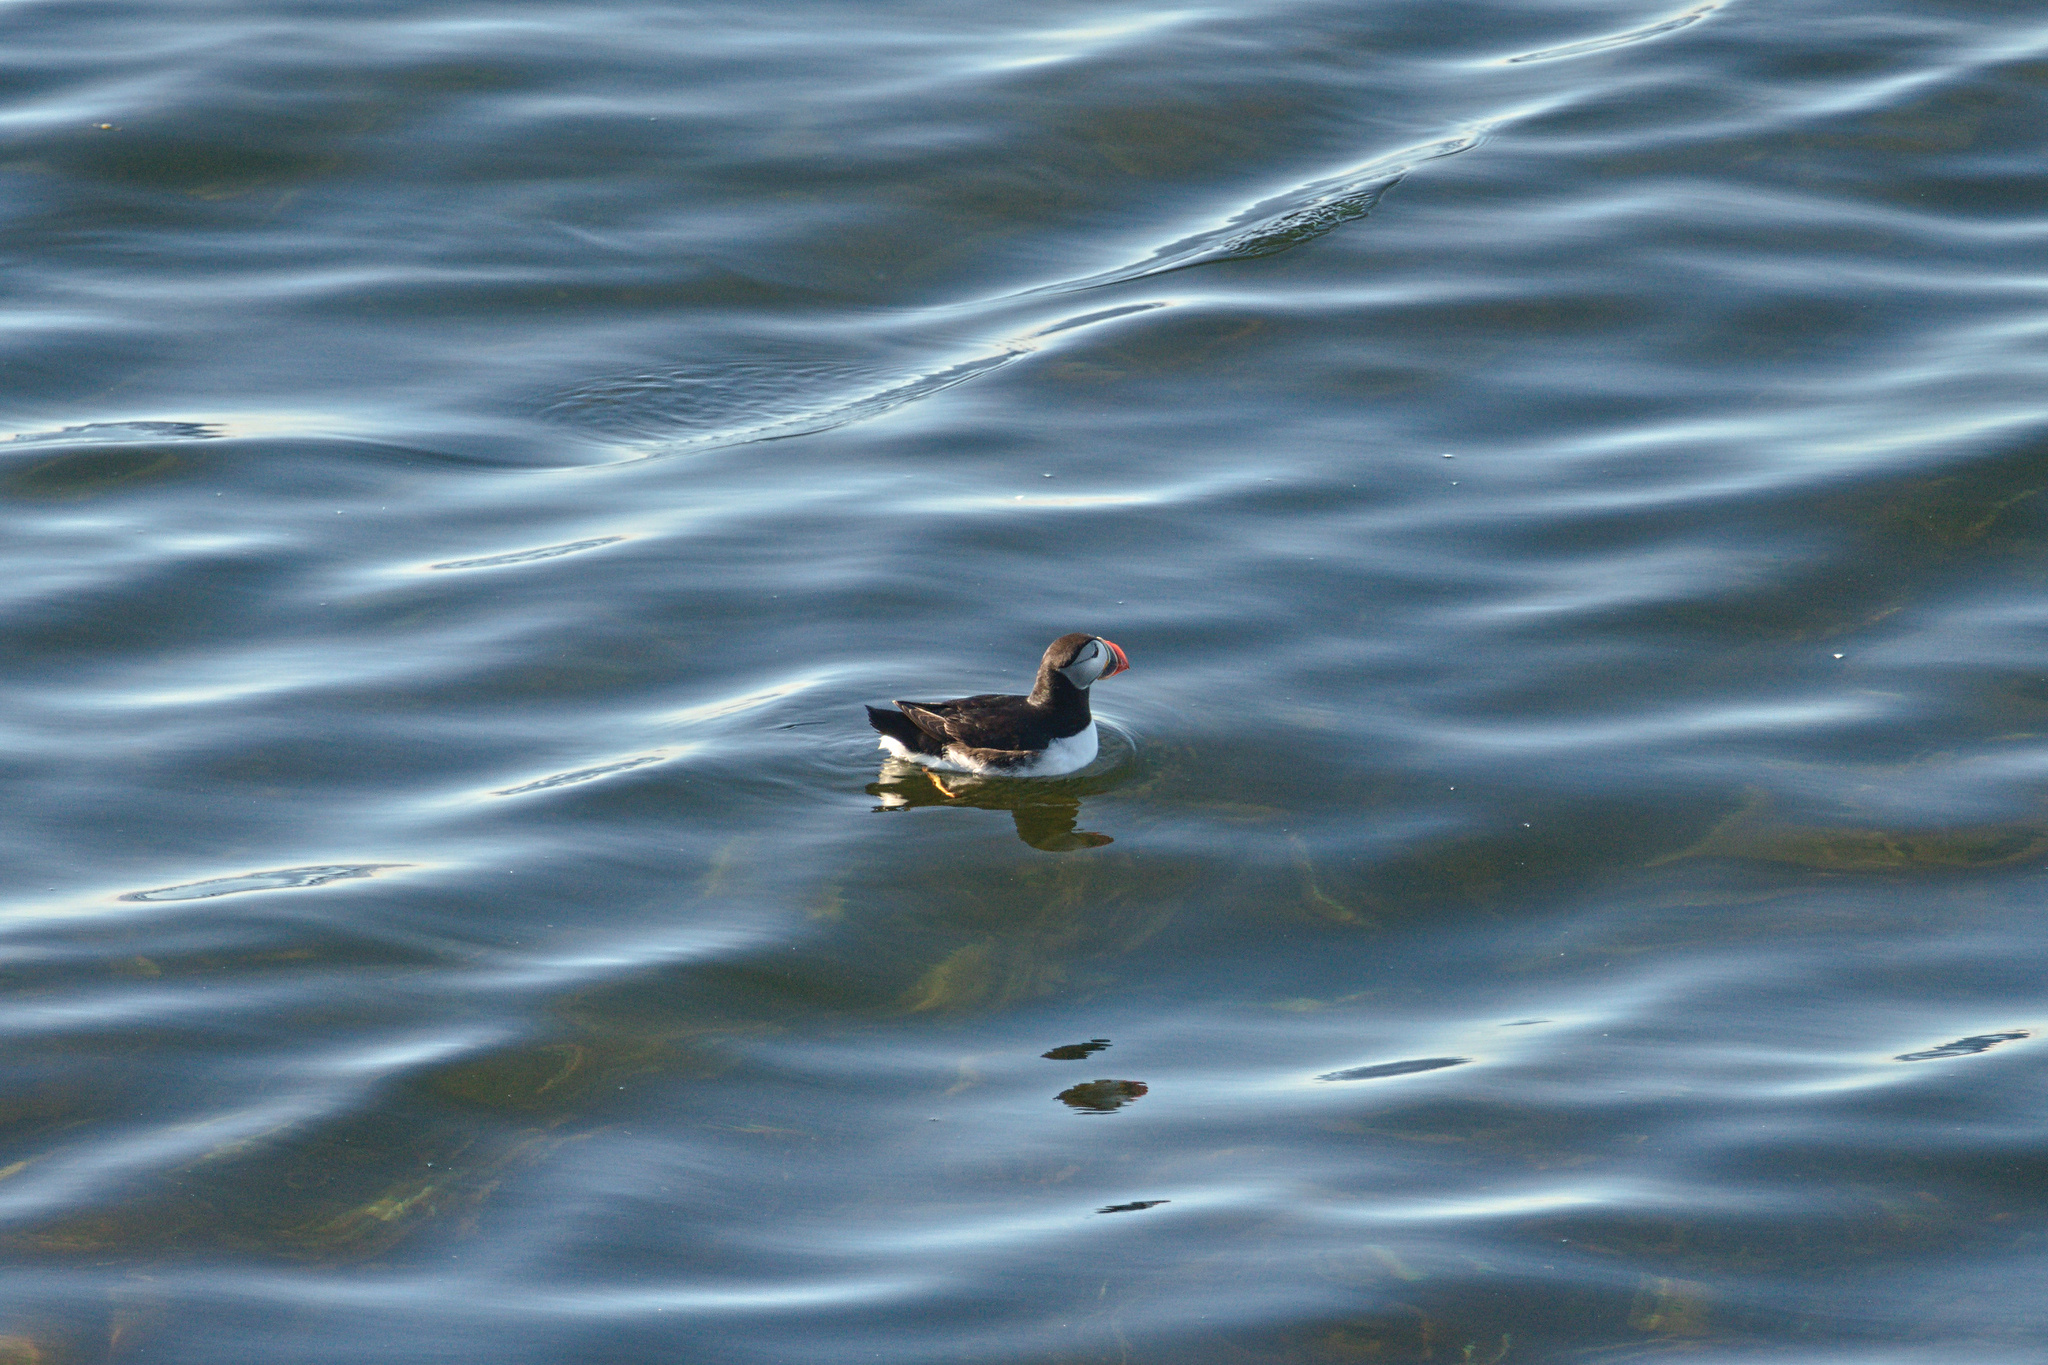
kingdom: Animalia
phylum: Chordata
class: Aves
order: Charadriiformes
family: Alcidae
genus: Fratercula
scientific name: Fratercula arctica
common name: Atlantic puffin
